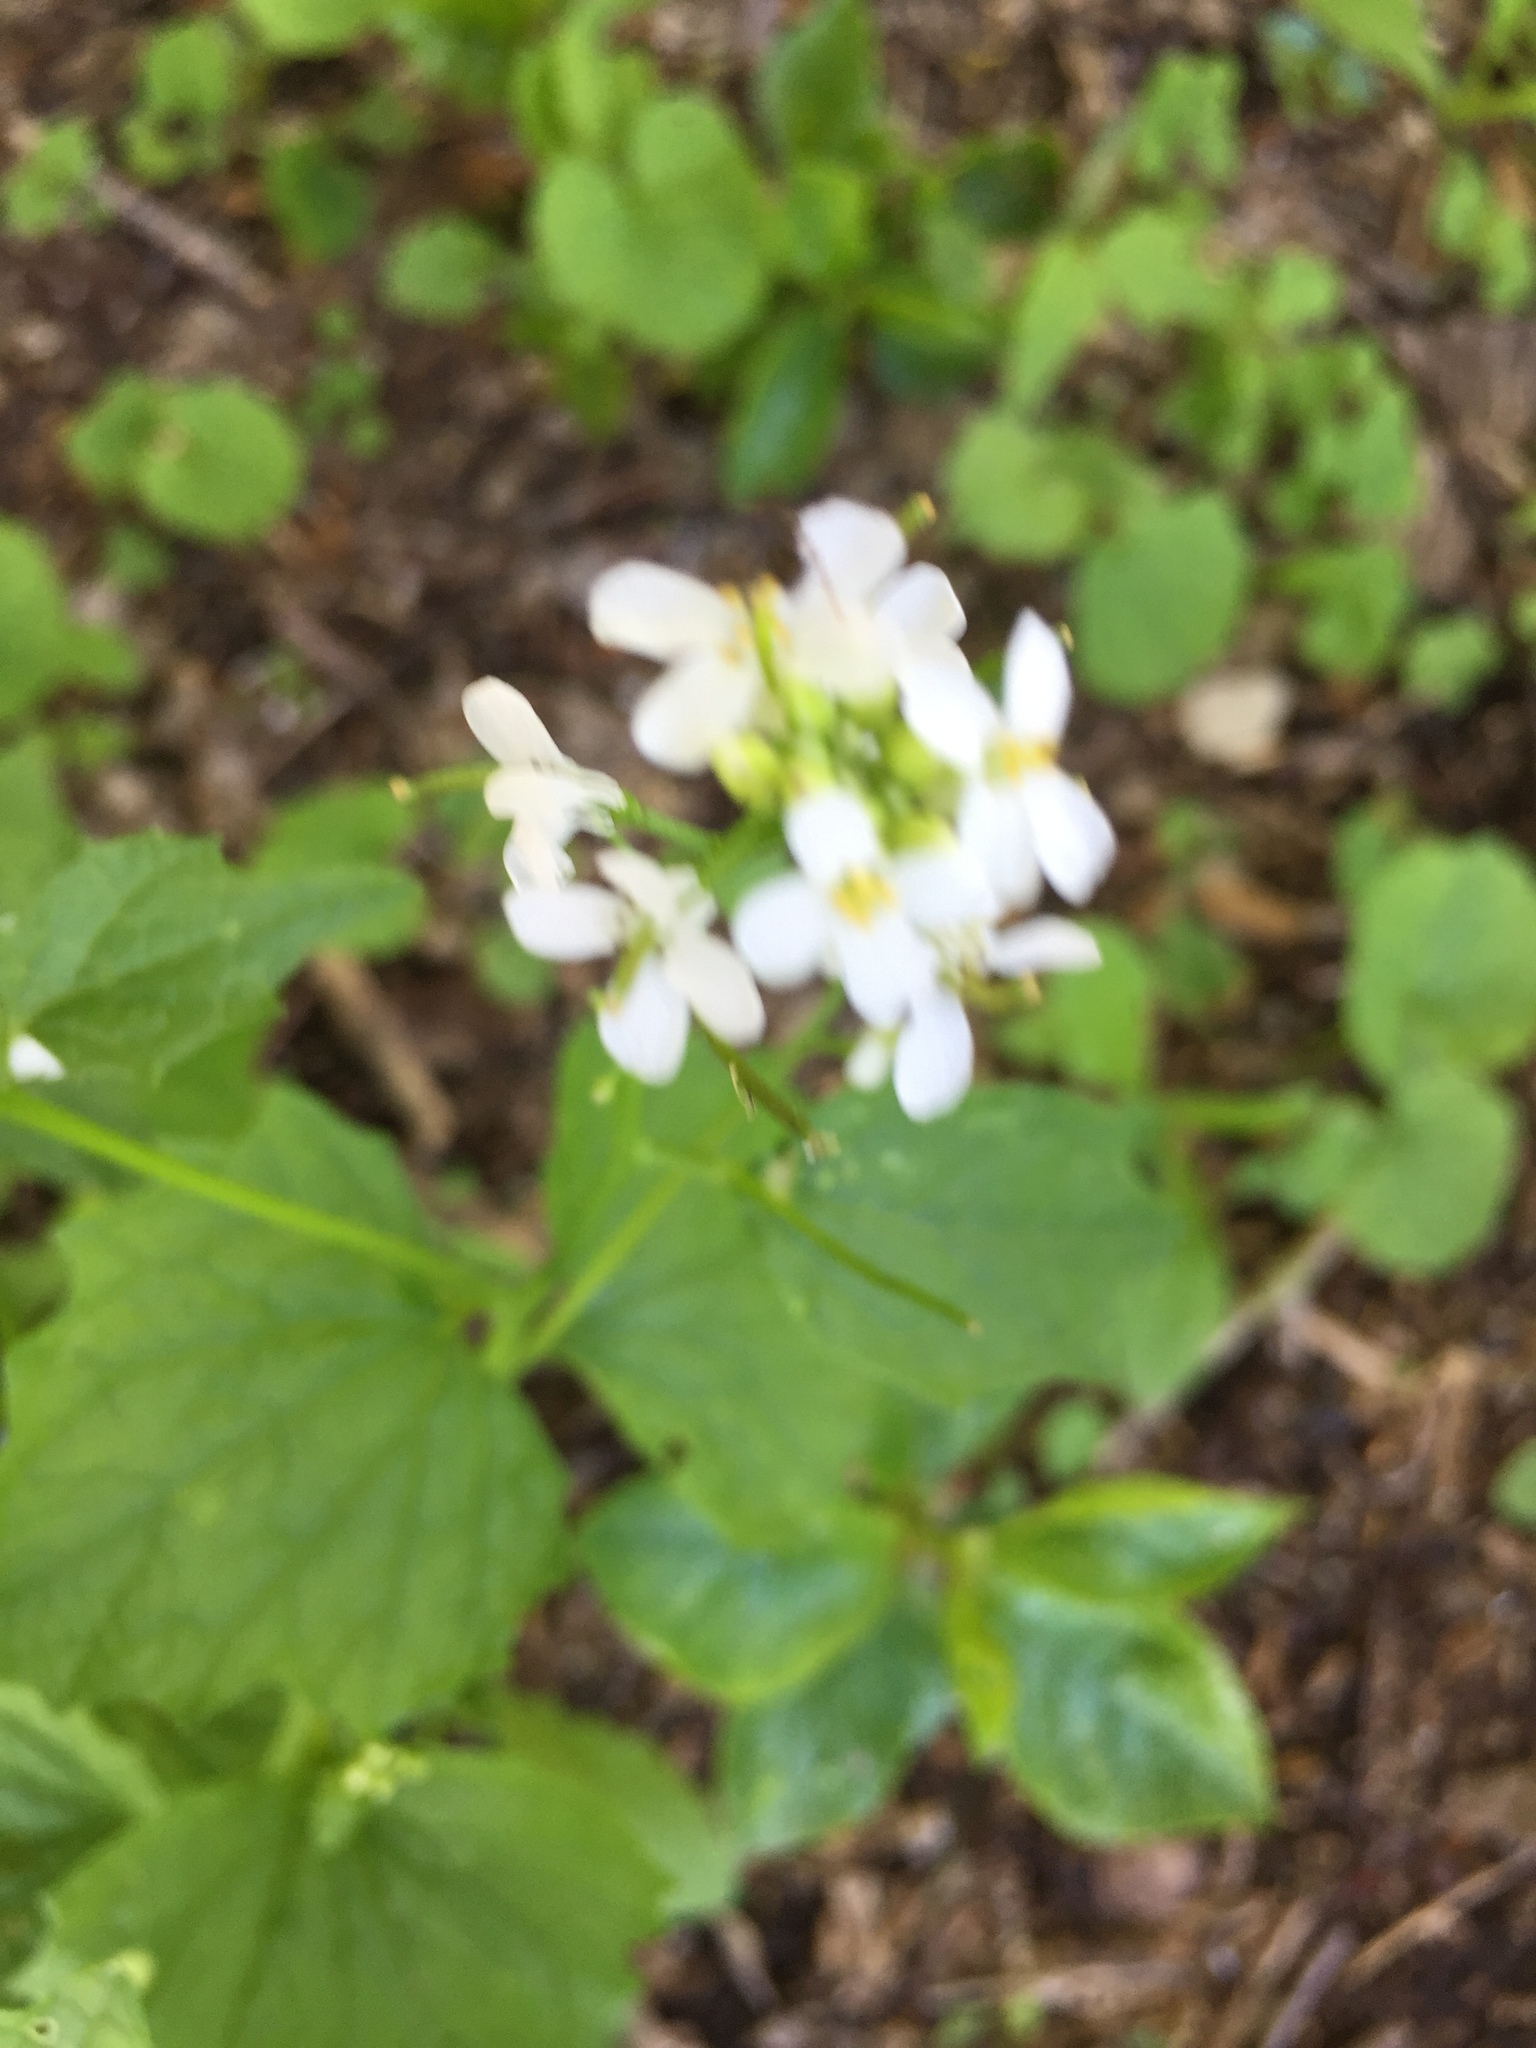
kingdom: Plantae
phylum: Tracheophyta
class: Magnoliopsida
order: Brassicales
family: Brassicaceae
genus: Alliaria
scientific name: Alliaria petiolata
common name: Garlic mustard
